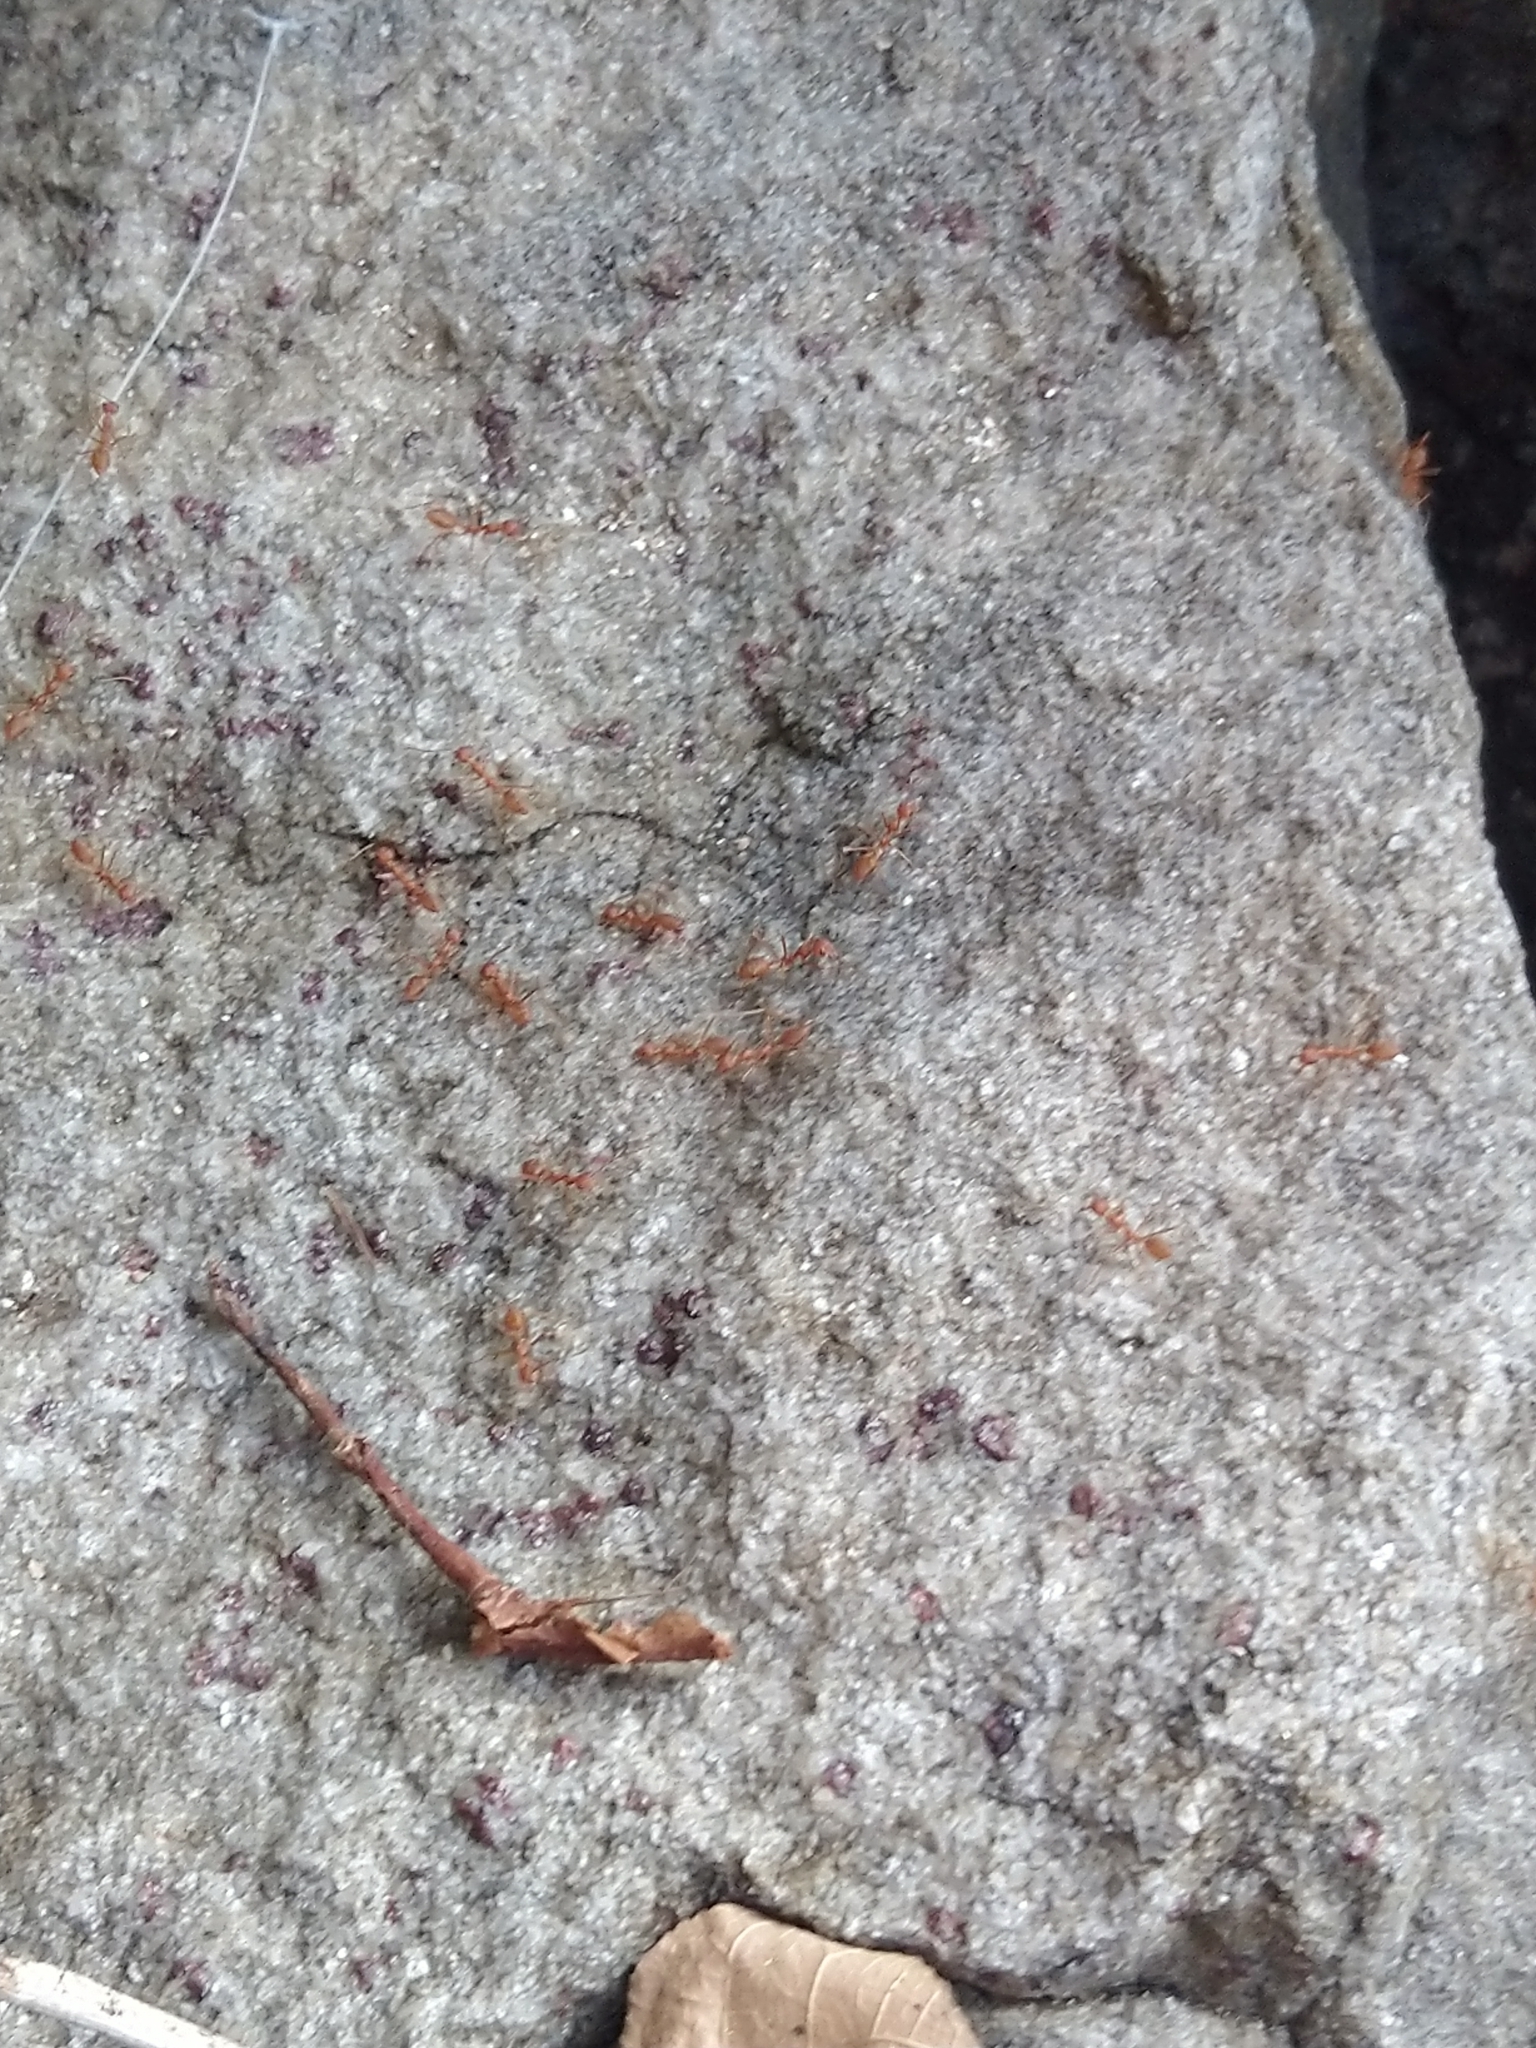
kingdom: Animalia
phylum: Arthropoda
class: Insecta
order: Hymenoptera
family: Formicidae
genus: Oecophylla
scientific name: Oecophylla smaragdina
